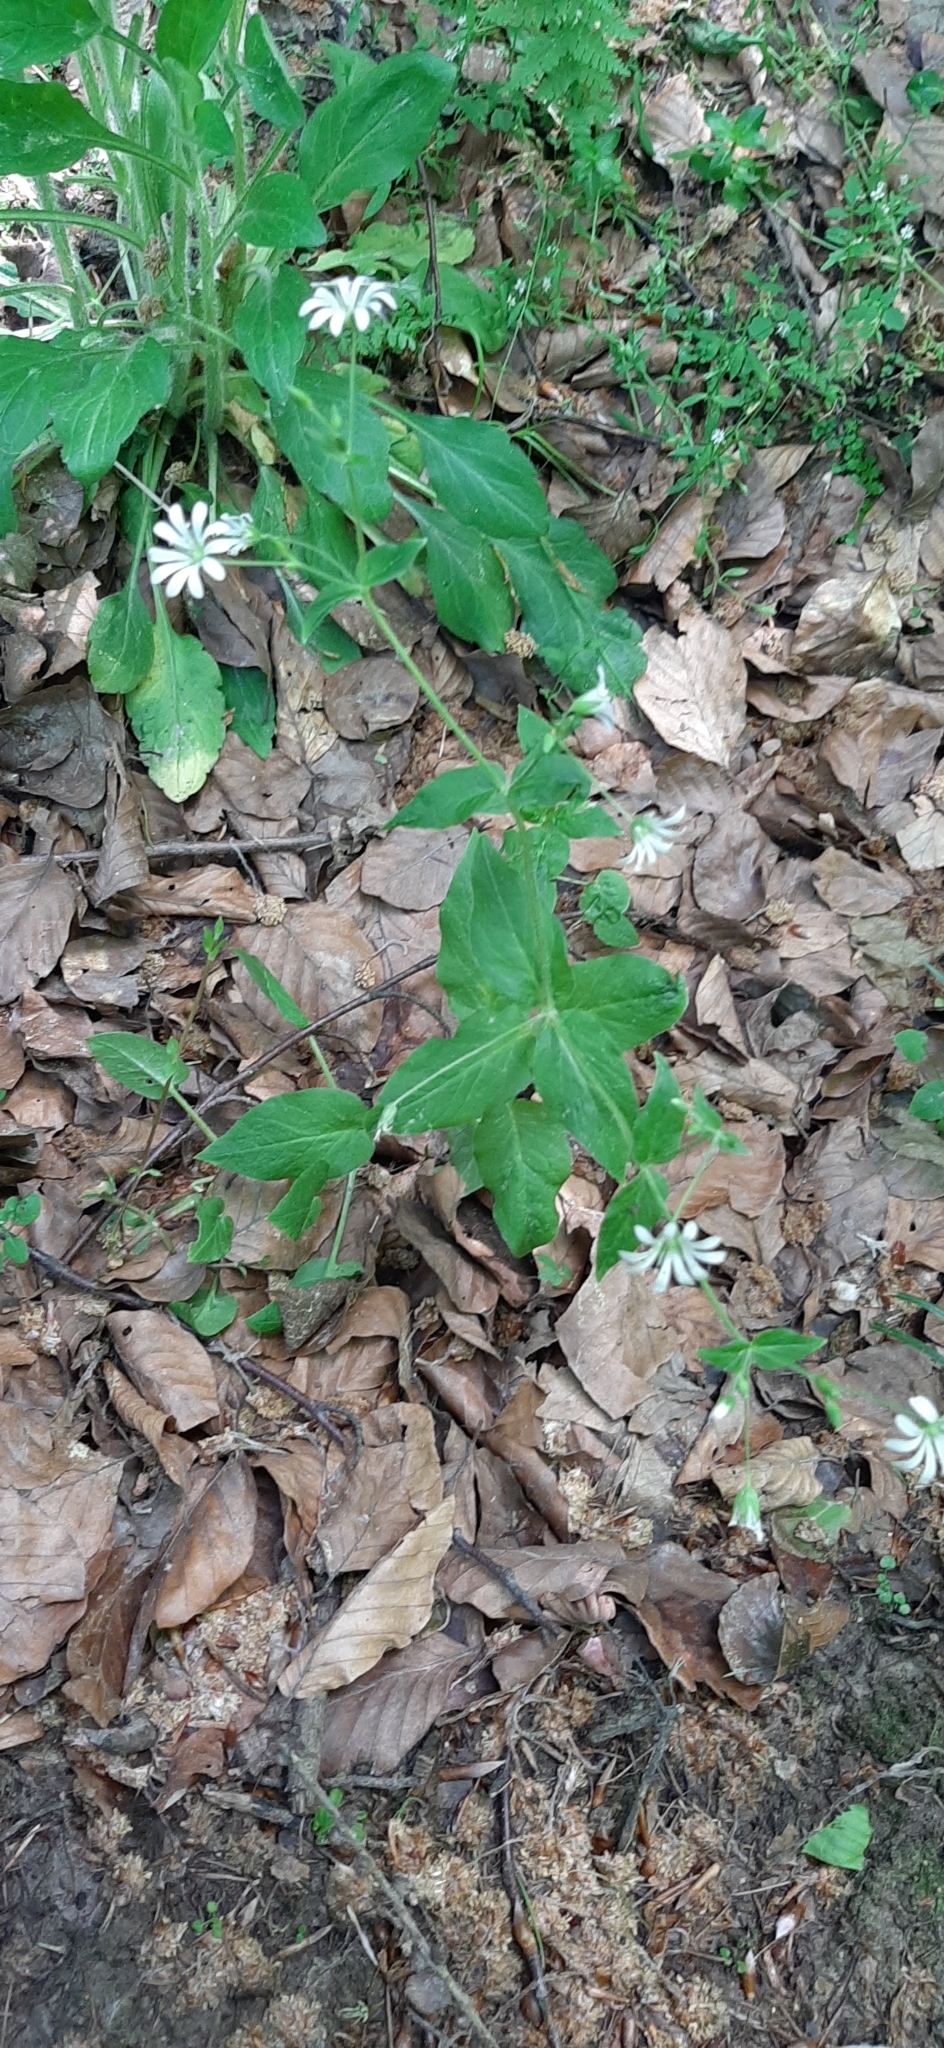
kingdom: Plantae
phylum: Tracheophyta
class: Magnoliopsida
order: Caryophyllales
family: Caryophyllaceae
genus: Stellaria
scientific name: Stellaria nemorum
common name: Wood stitchwort
